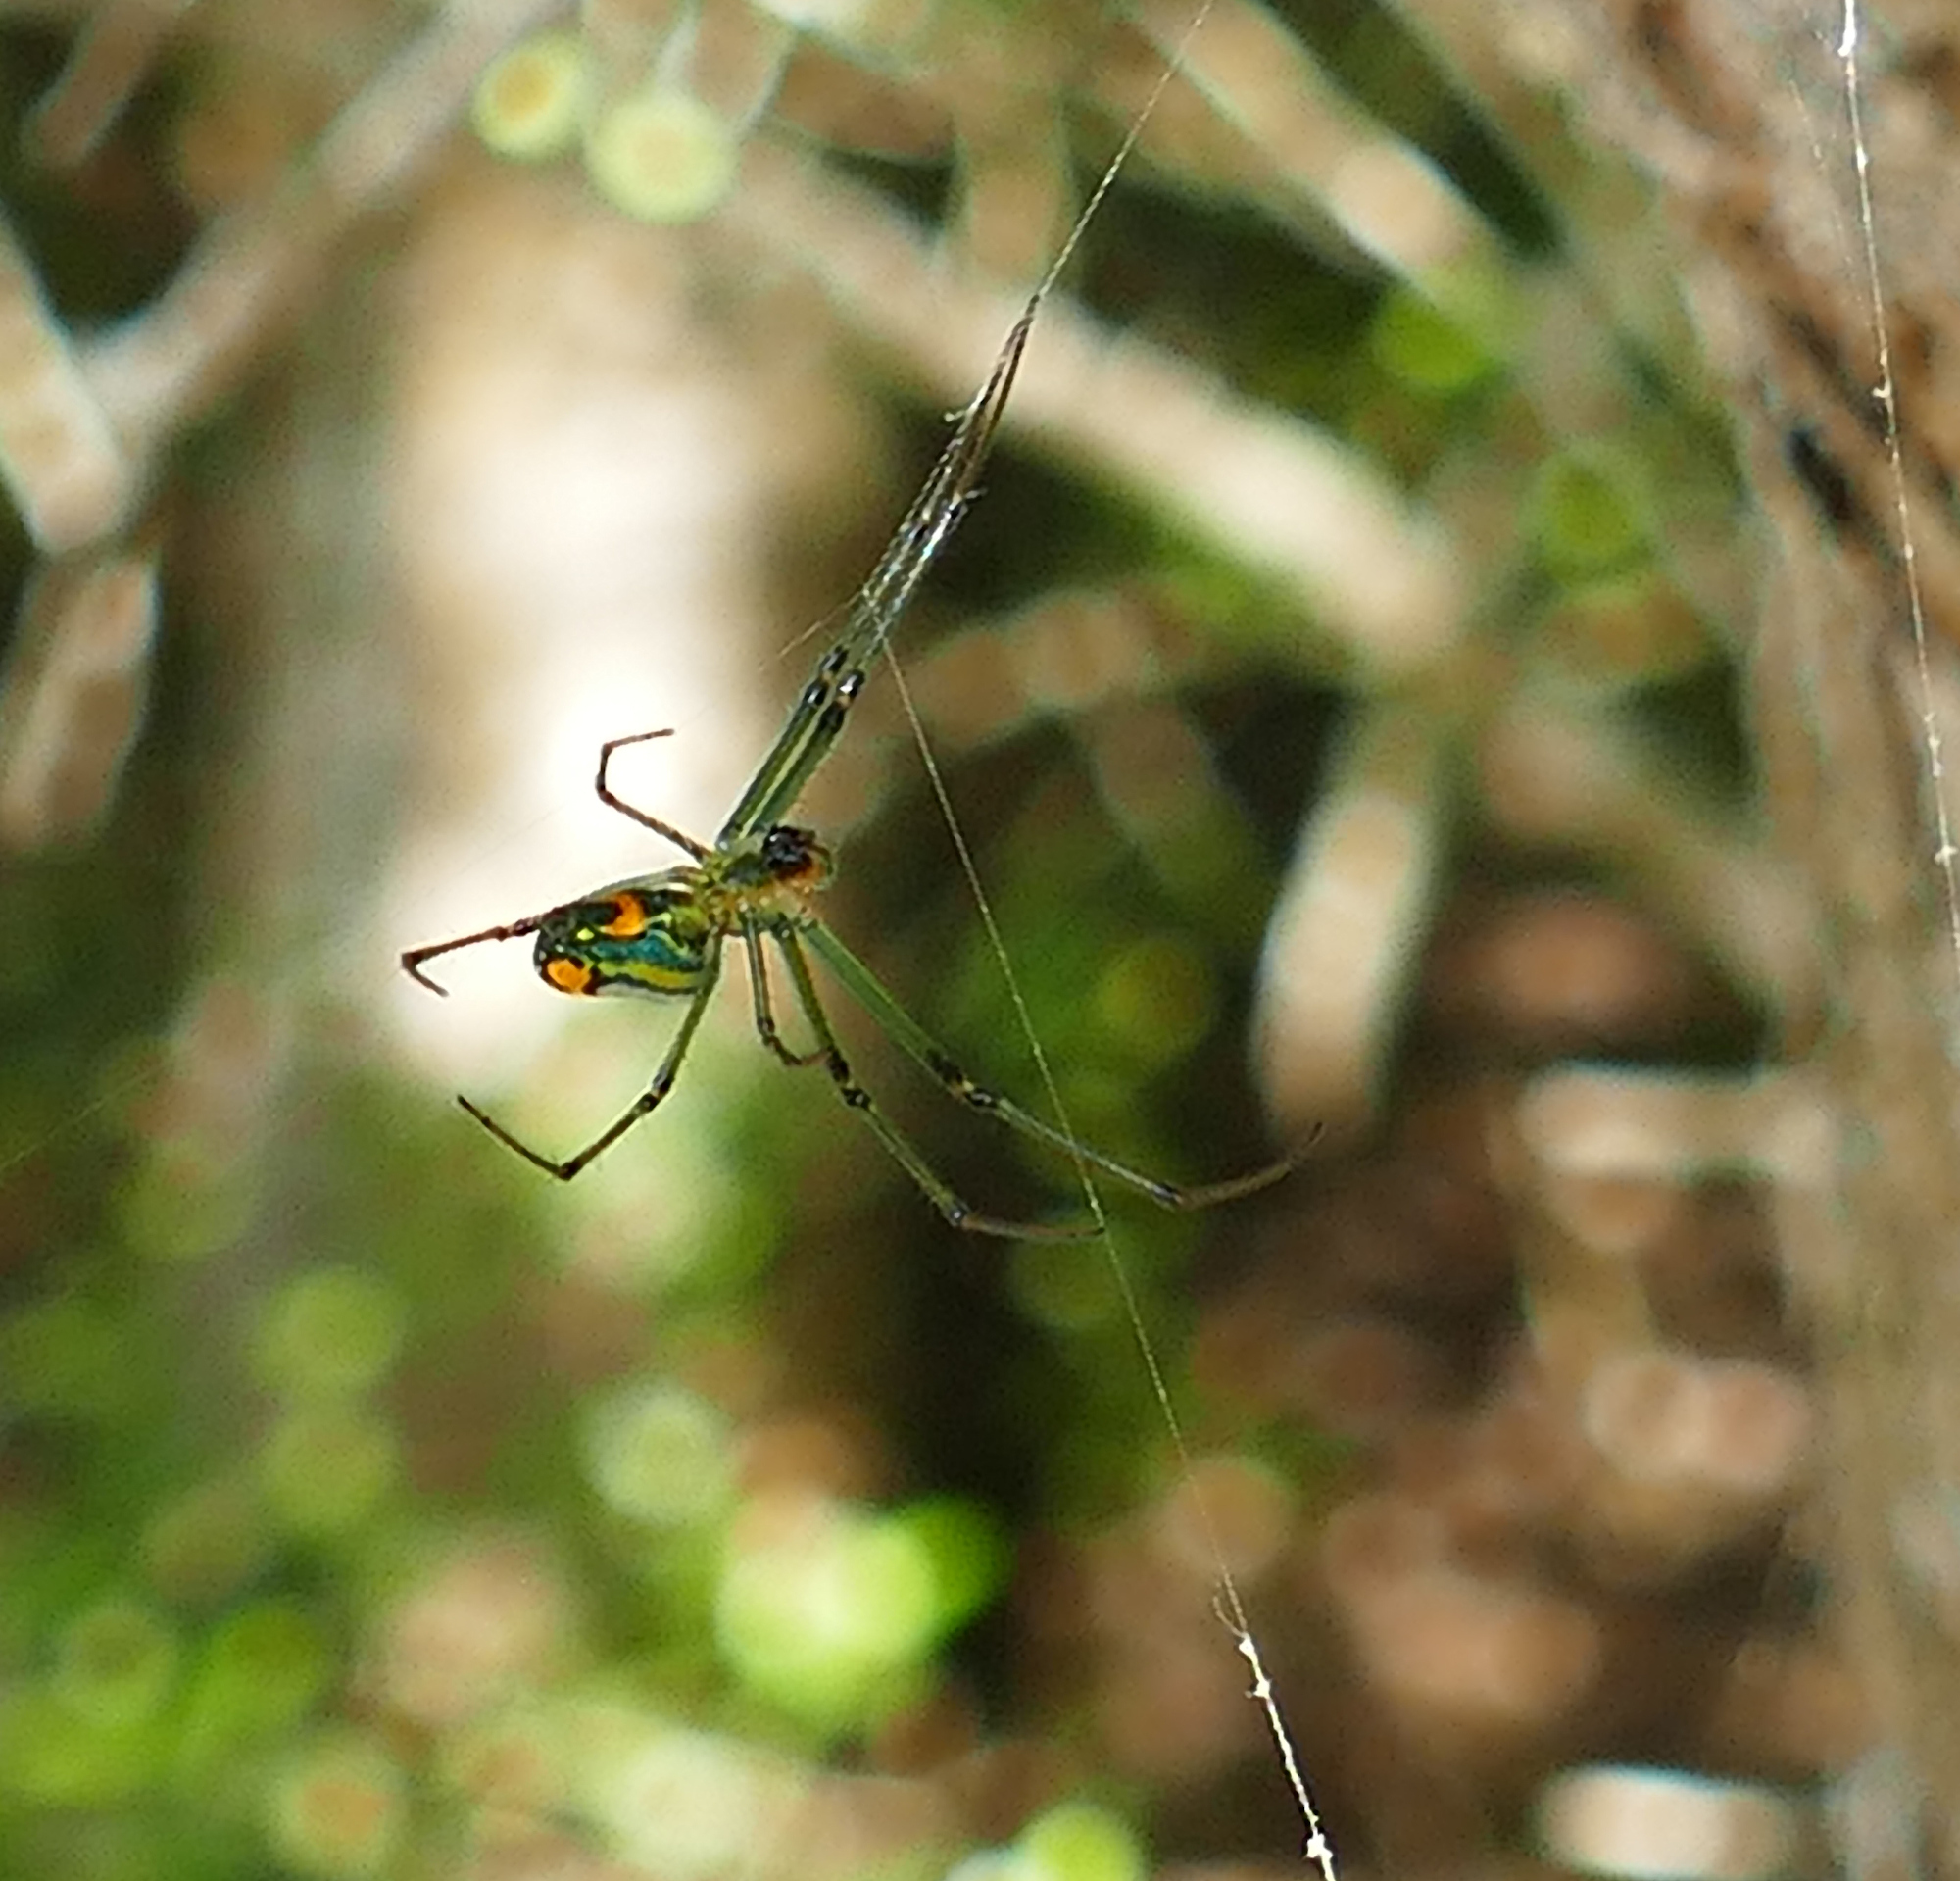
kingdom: Animalia
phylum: Arthropoda
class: Arachnida
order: Araneae
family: Tetragnathidae
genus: Leucauge
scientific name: Leucauge argyrobapta
